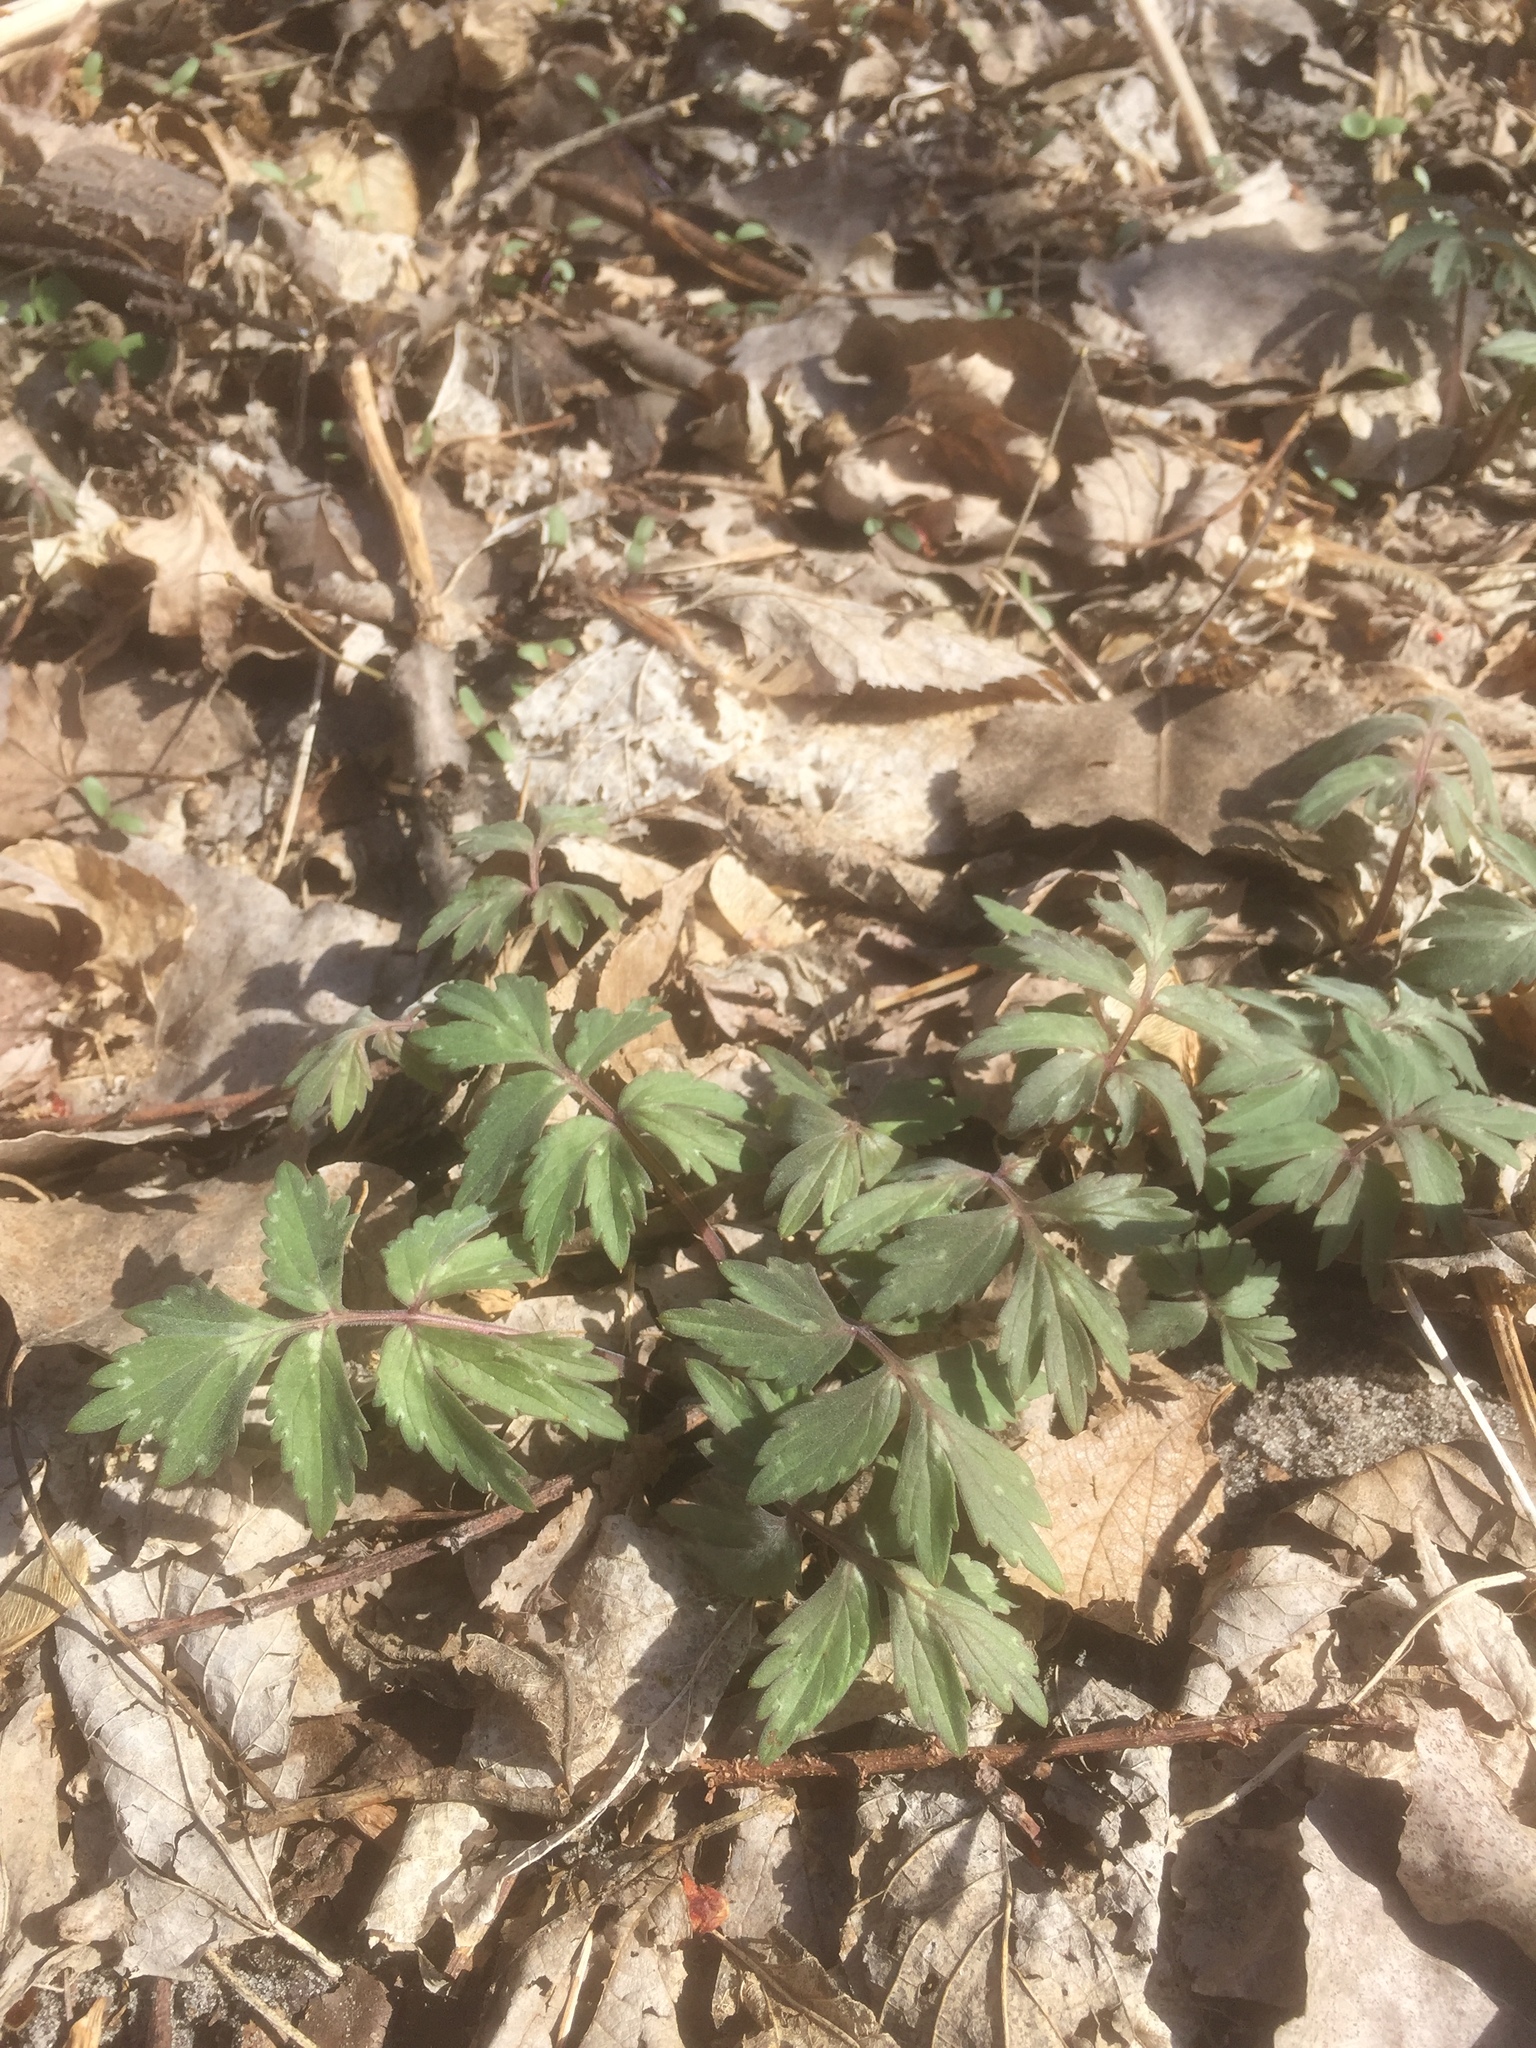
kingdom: Plantae
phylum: Tracheophyta
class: Magnoliopsida
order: Boraginales
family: Hydrophyllaceae
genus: Hydrophyllum
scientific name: Hydrophyllum virginianum
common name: Virginia waterleaf
